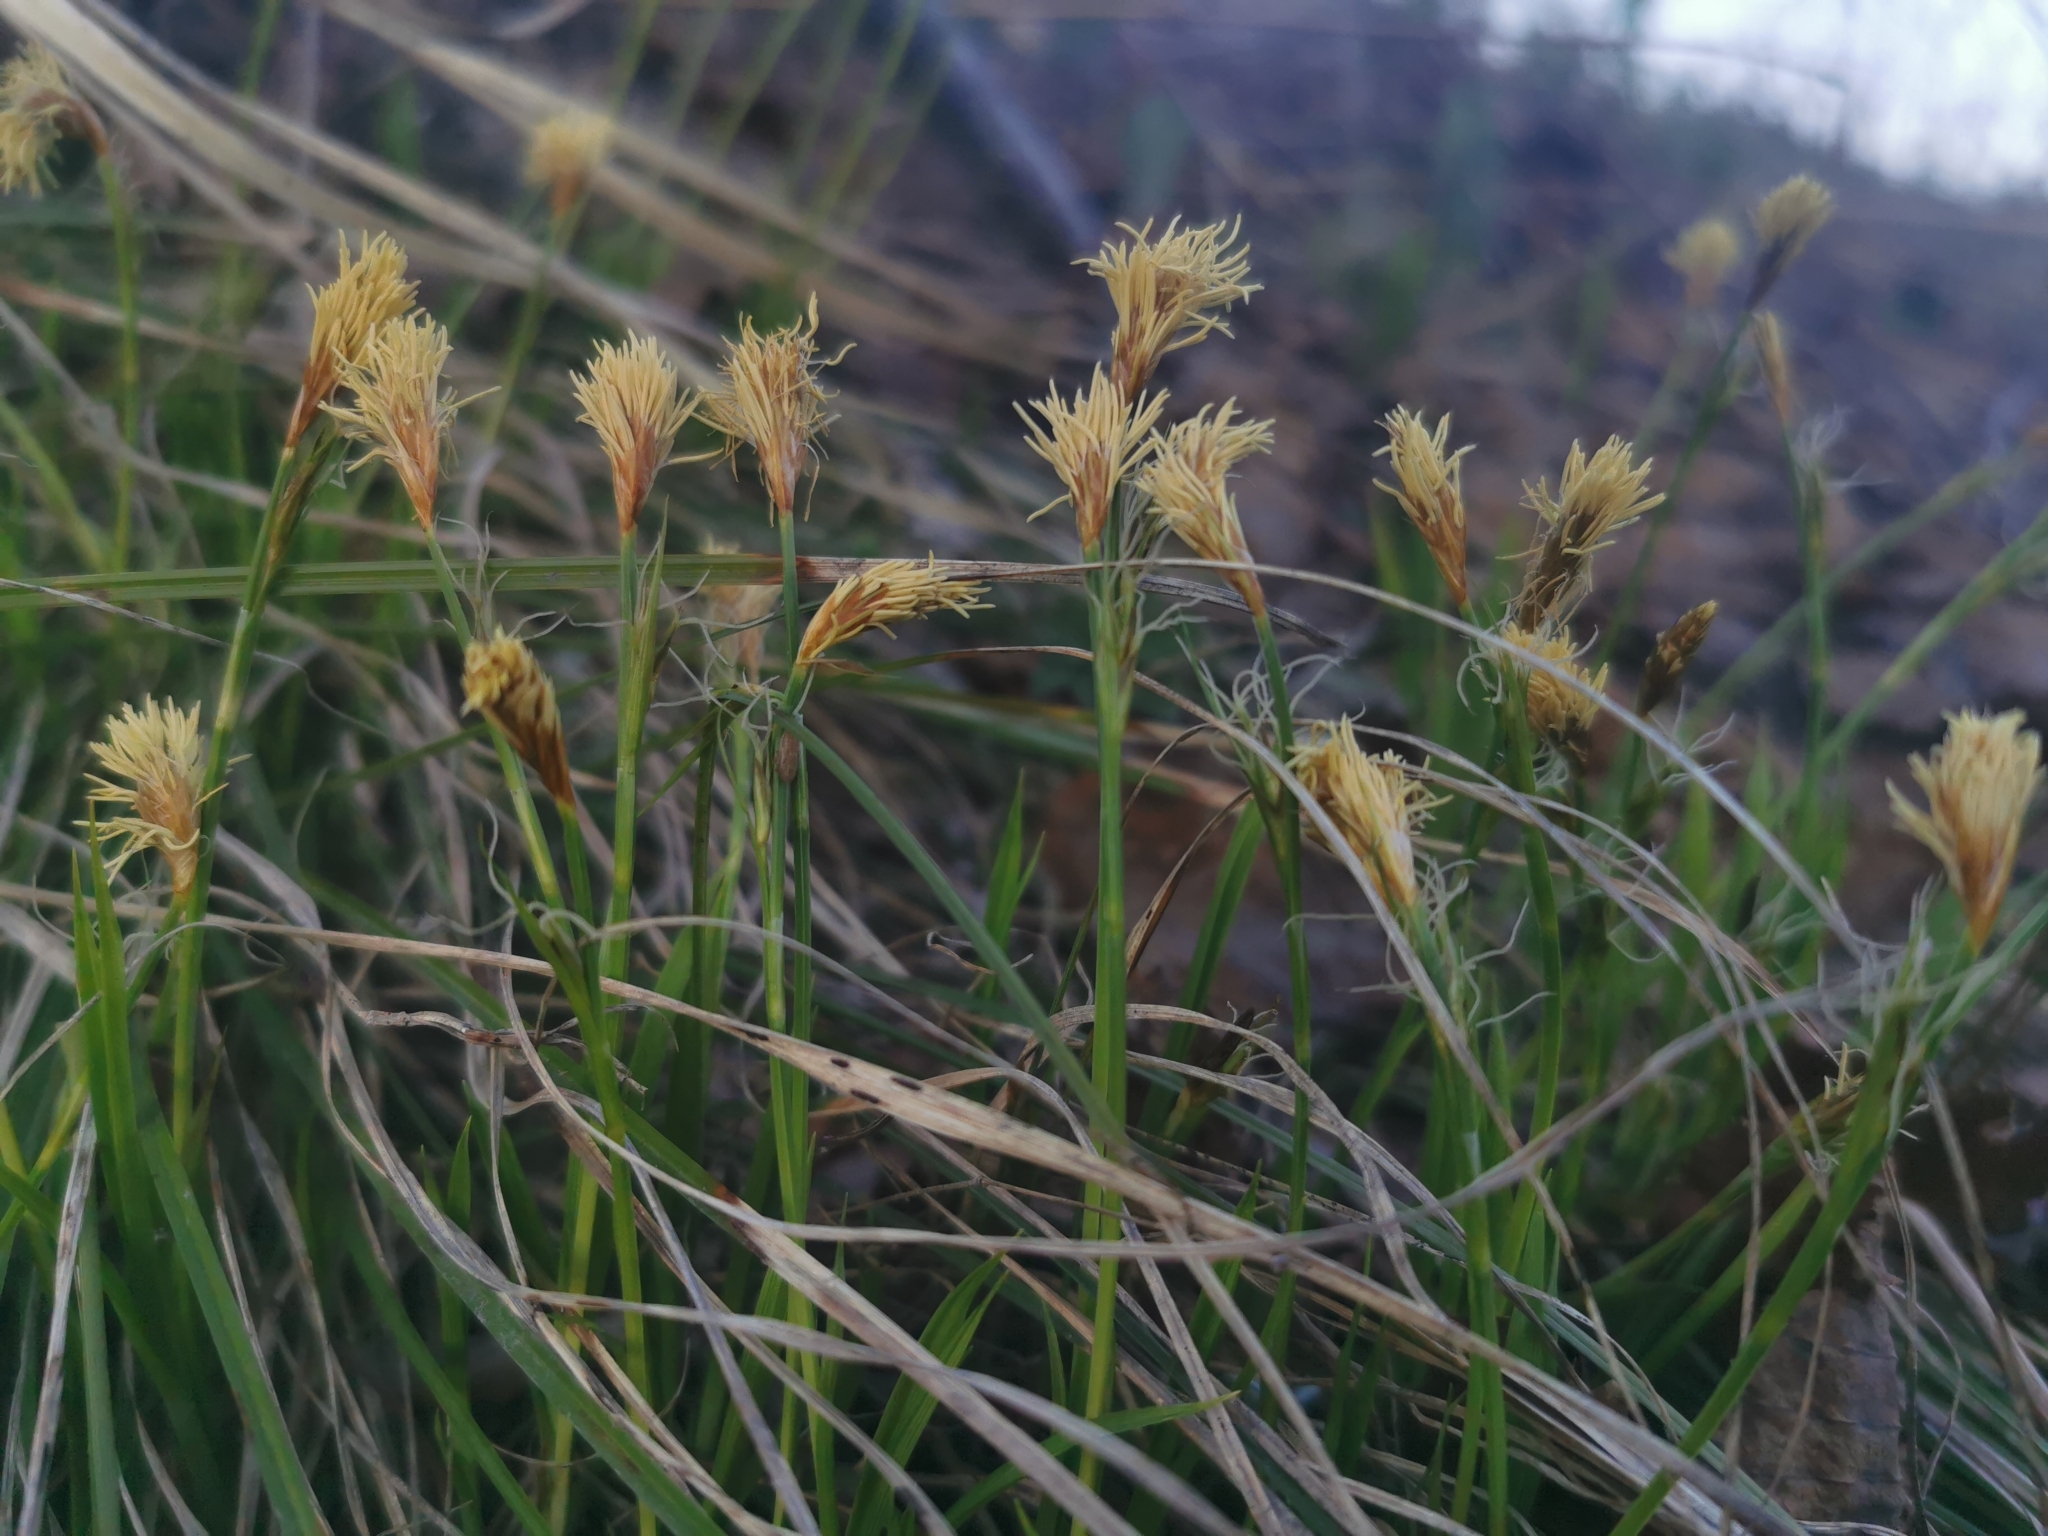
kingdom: Plantae
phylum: Tracheophyta
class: Liliopsida
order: Poales
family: Cyperaceae
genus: Carex
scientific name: Carex longerostrata
